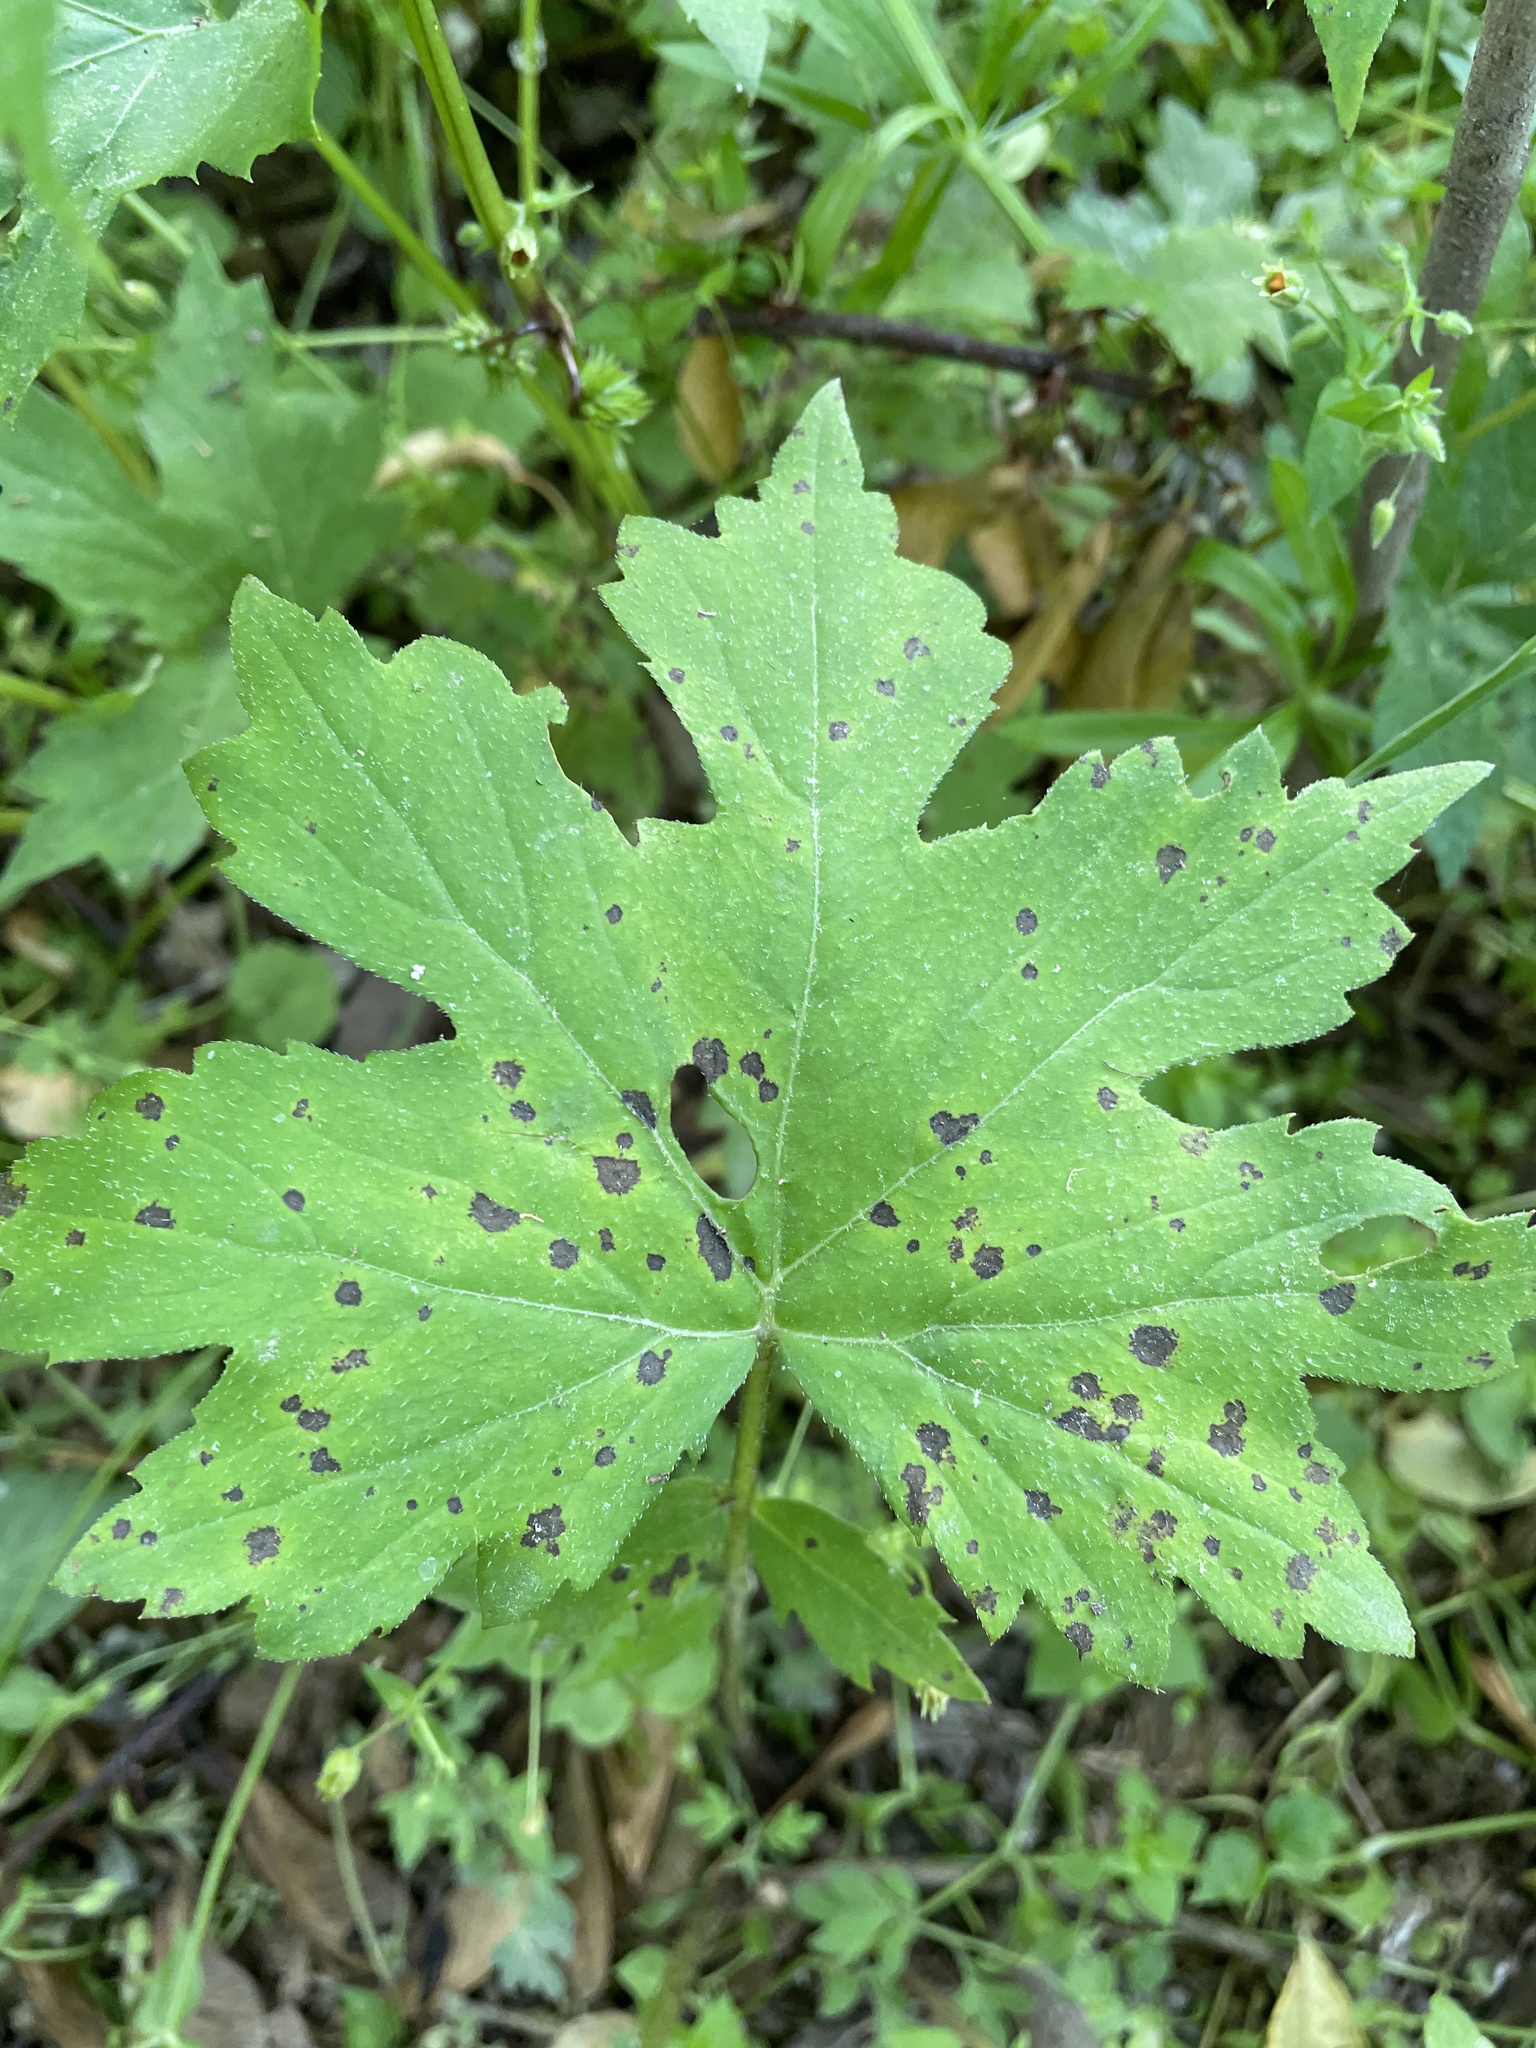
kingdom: Plantae
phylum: Tracheophyta
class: Magnoliopsida
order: Boraginales
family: Hydrophyllaceae
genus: Hydrophyllum
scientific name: Hydrophyllum canadense
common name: Canada waterleaf
